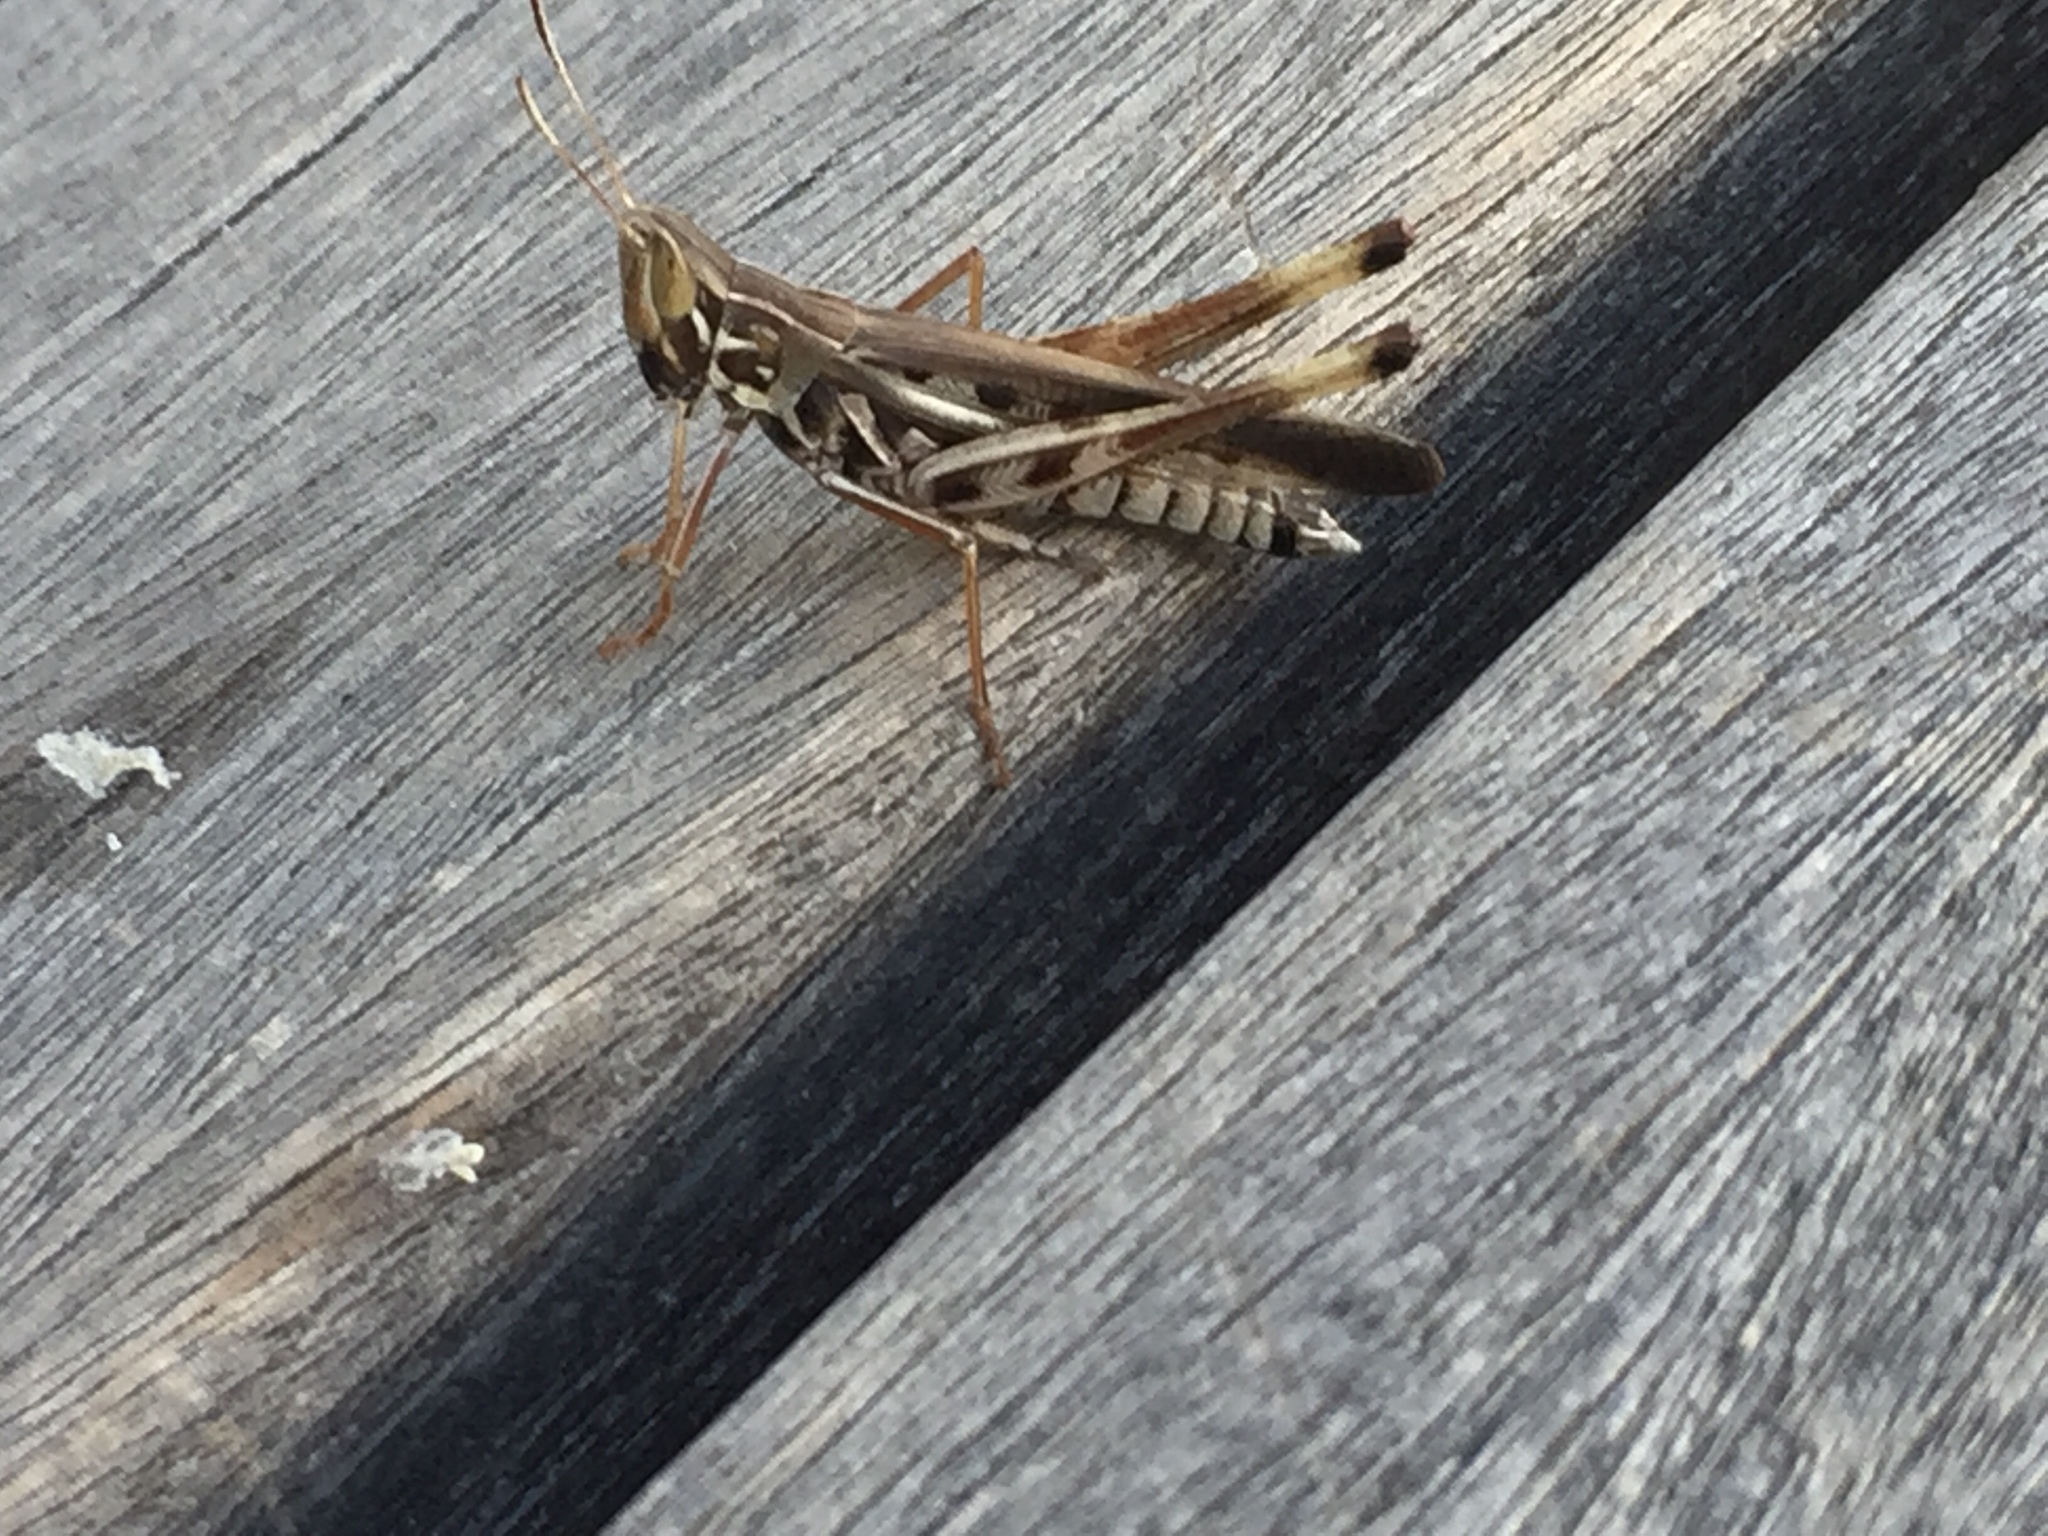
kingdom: Animalia
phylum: Arthropoda
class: Insecta
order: Orthoptera
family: Acrididae
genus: Syrbula
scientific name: Syrbula admirabilis
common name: Handsome grasshopper
